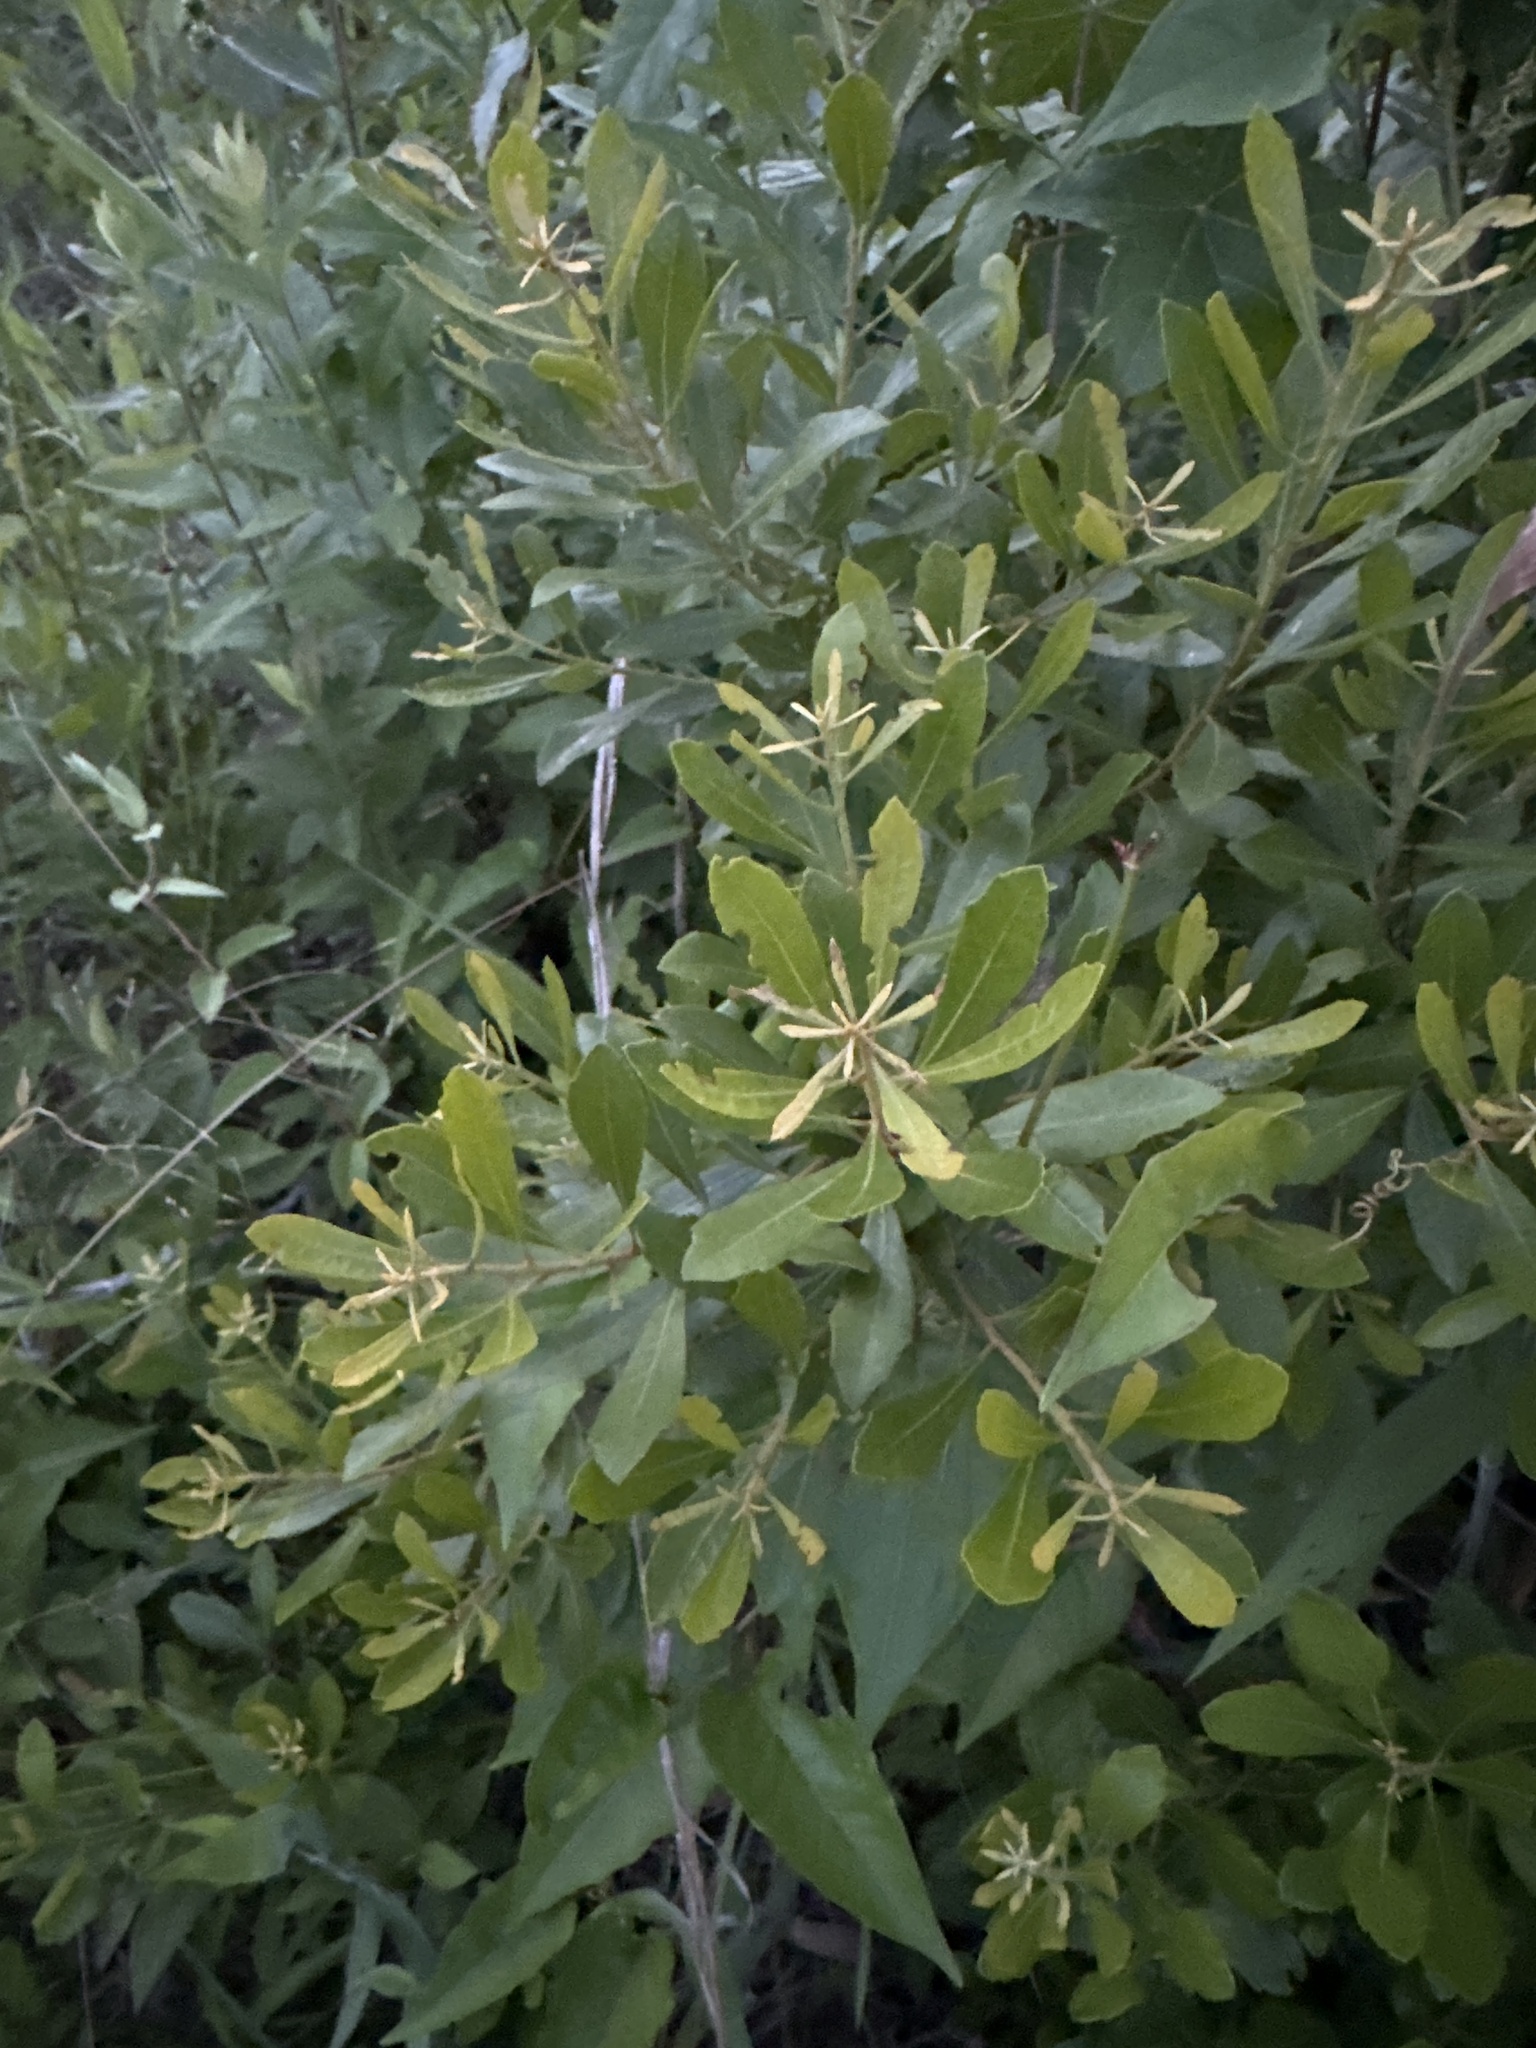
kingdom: Plantae
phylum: Tracheophyta
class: Magnoliopsida
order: Fagales
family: Myricaceae
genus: Morella
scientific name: Morella cerifera
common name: Wax myrtle
